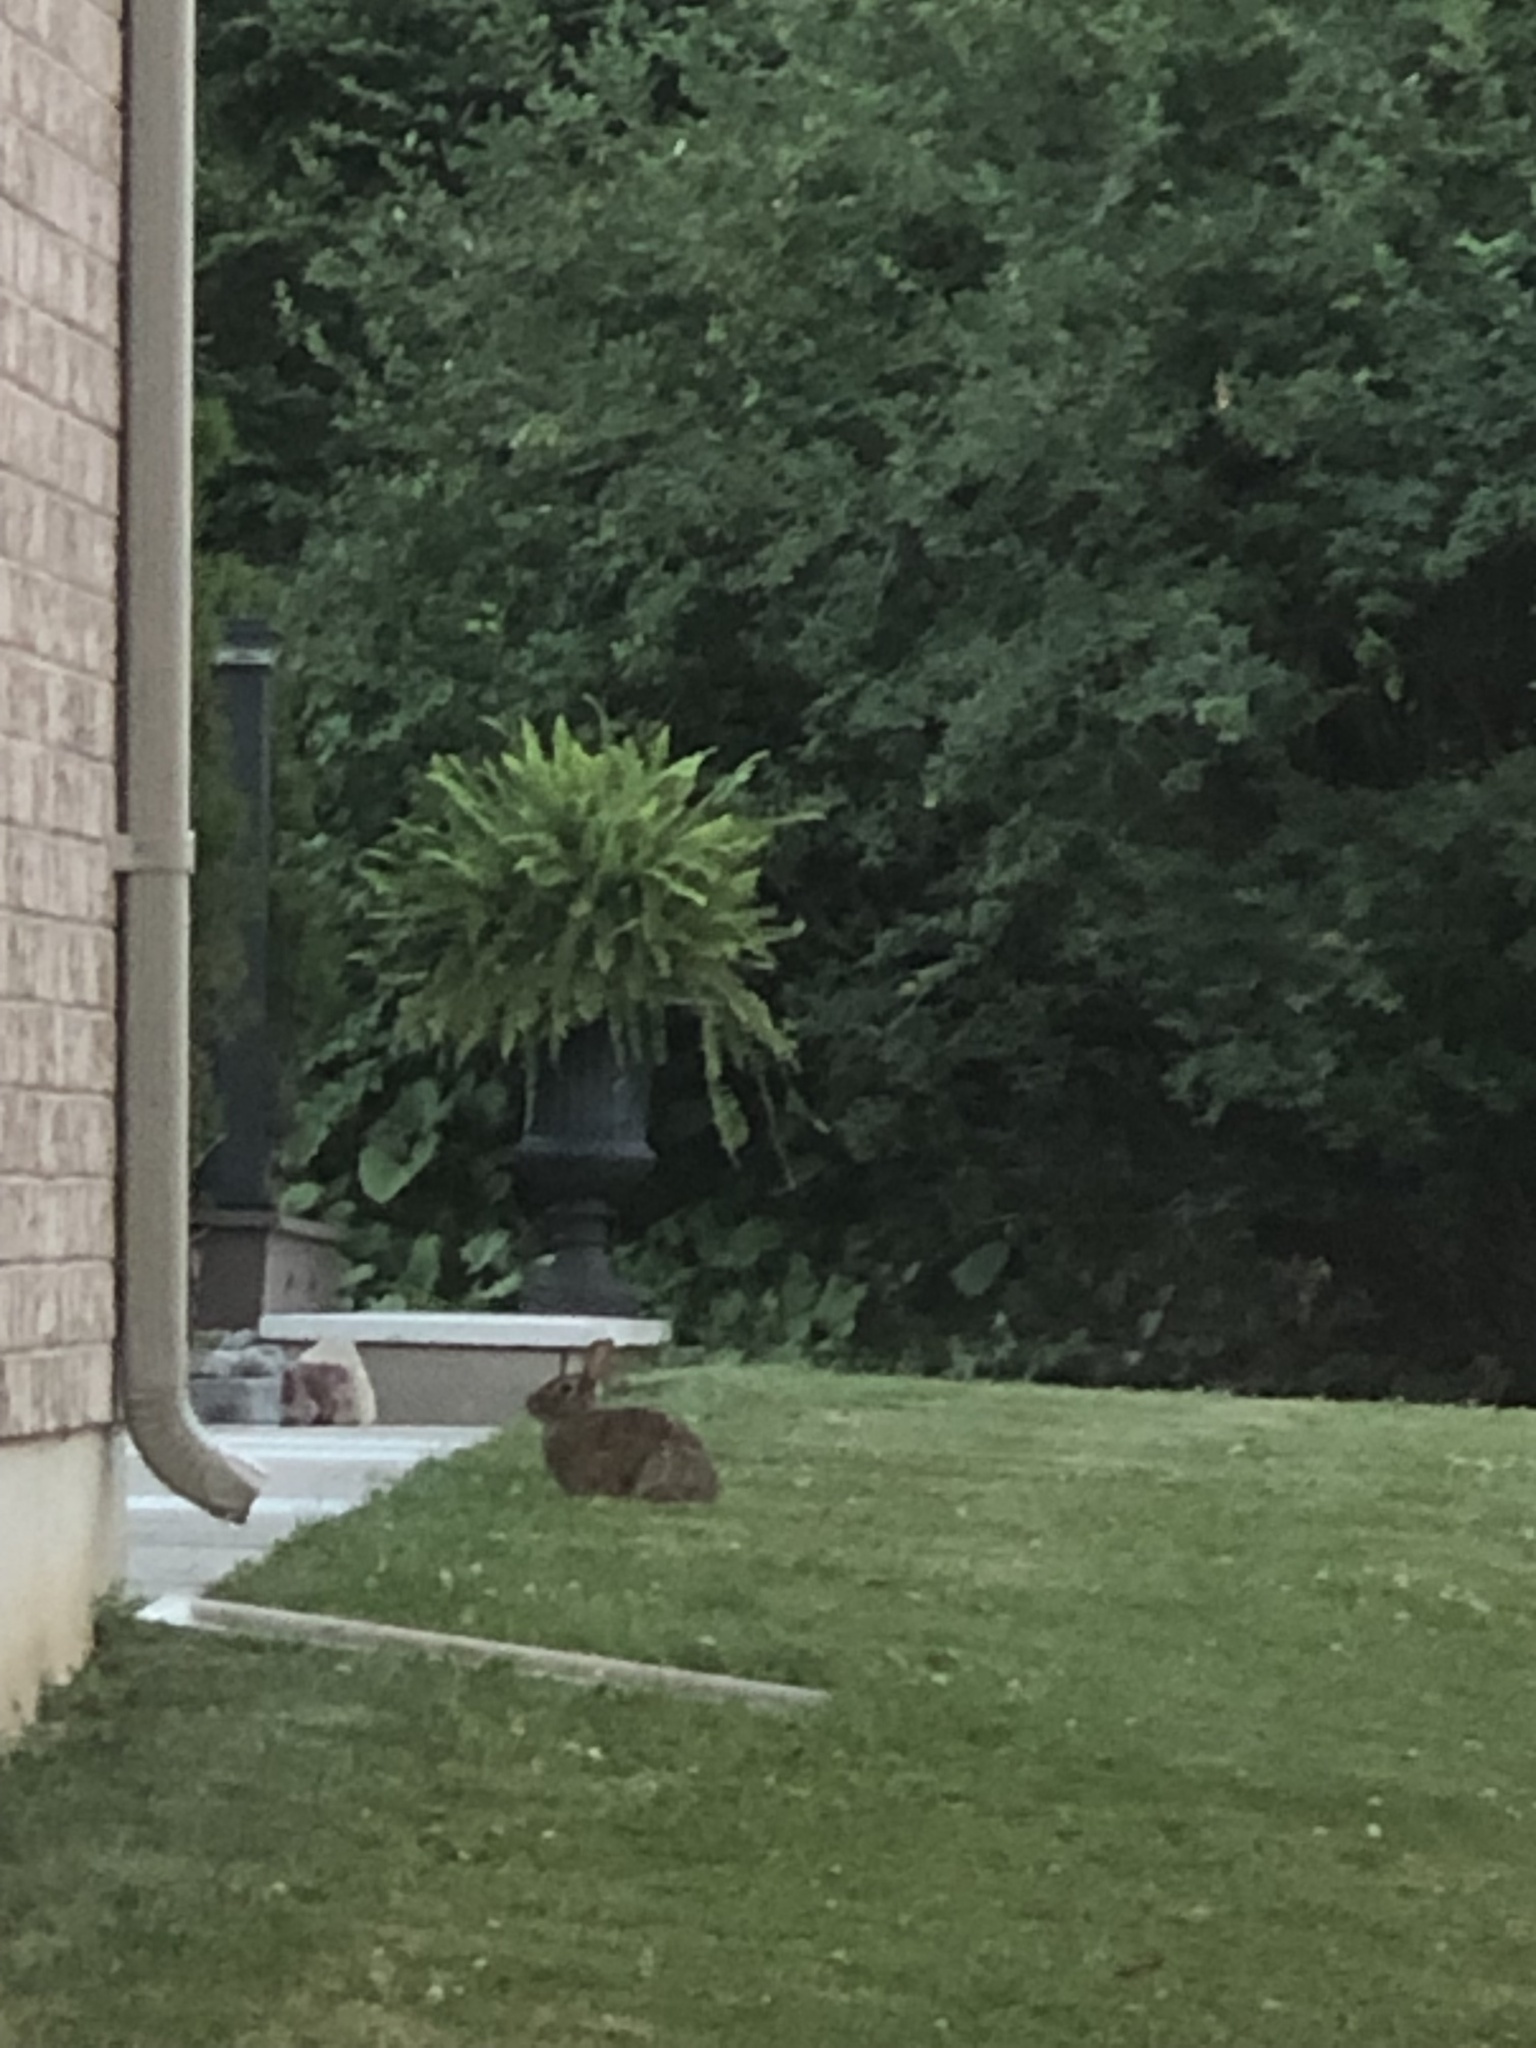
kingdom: Animalia
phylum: Chordata
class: Mammalia
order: Lagomorpha
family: Leporidae
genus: Sylvilagus
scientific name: Sylvilagus floridanus
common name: Eastern cottontail
